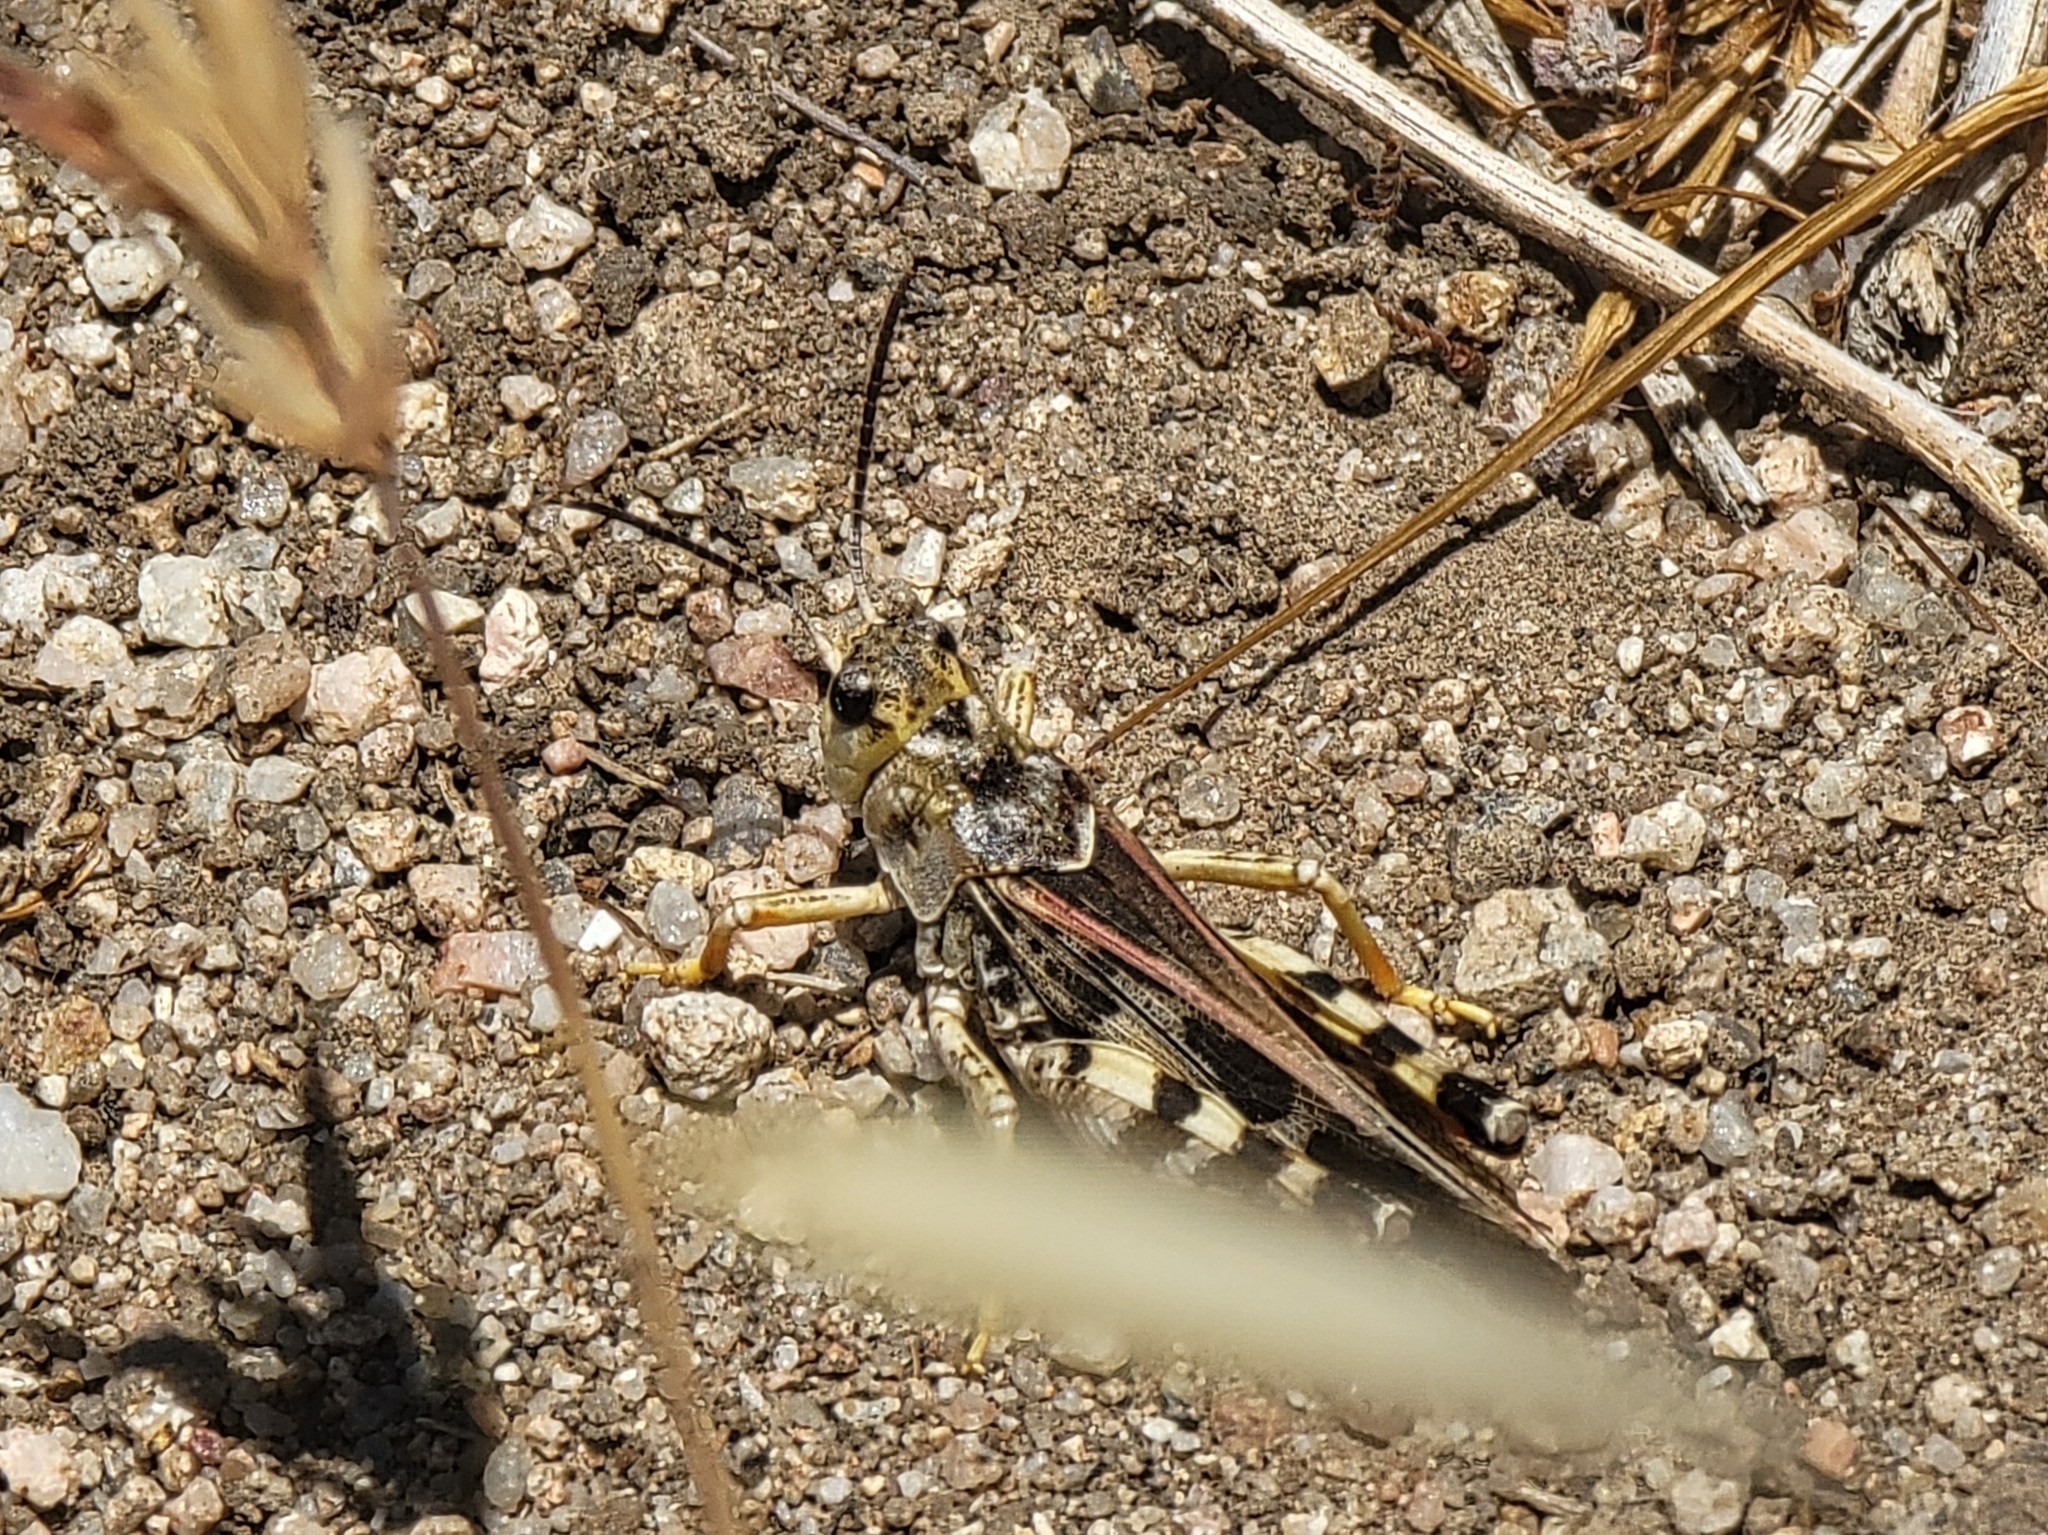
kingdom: Animalia
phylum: Arthropoda
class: Insecta
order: Orthoptera
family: Acrididae
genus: Sticthippus
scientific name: Sticthippus californicus
